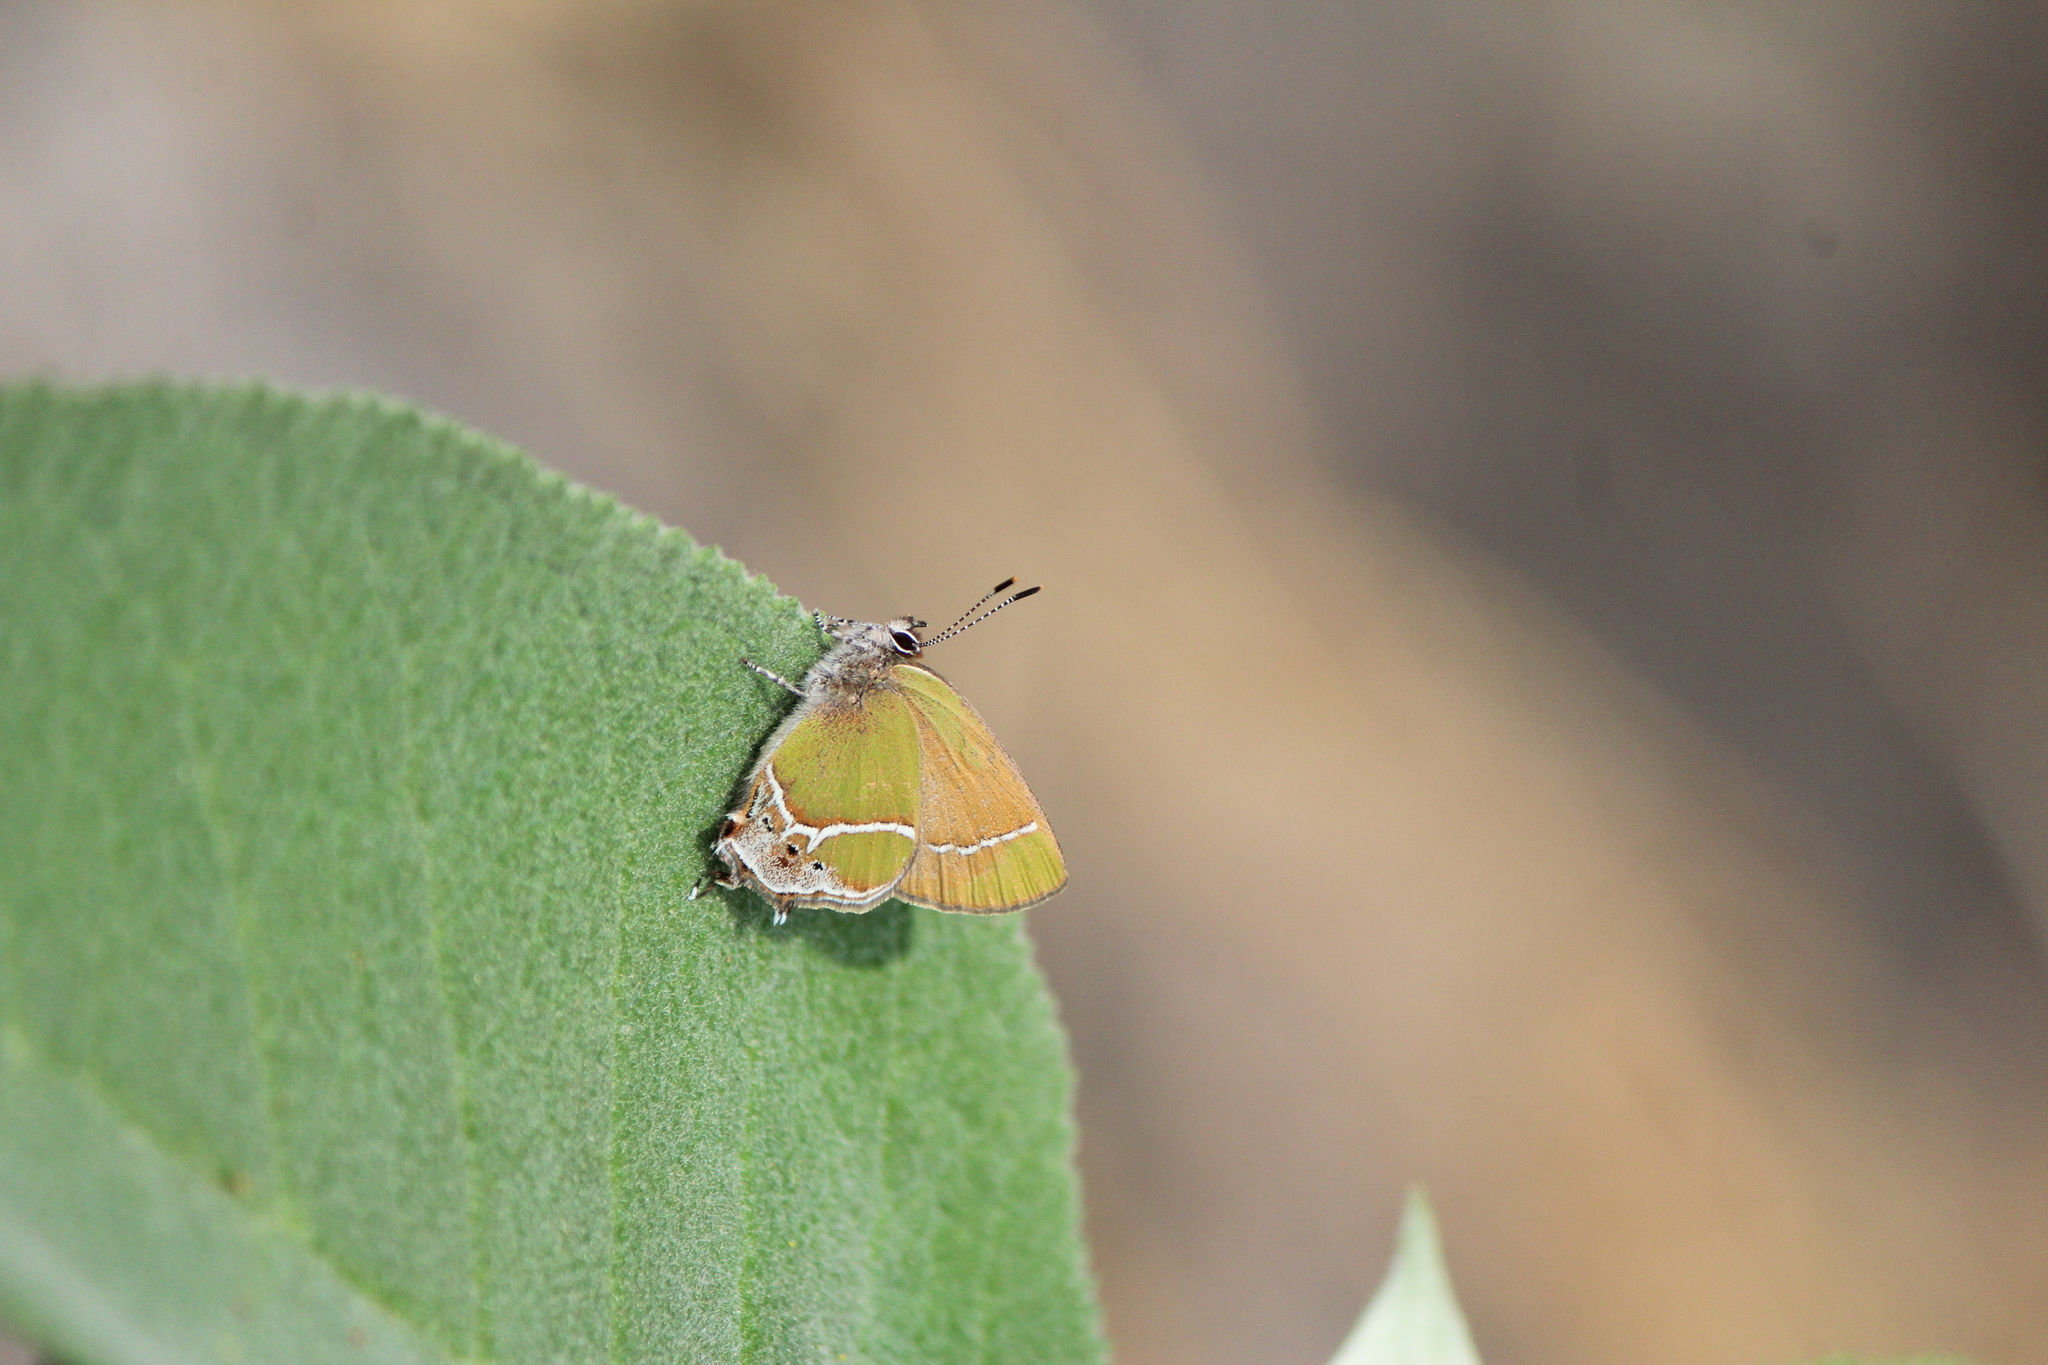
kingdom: Animalia
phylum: Arthropoda
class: Insecta
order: Lepidoptera
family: Lycaenidae
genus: Xamia
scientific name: Xamia xami
